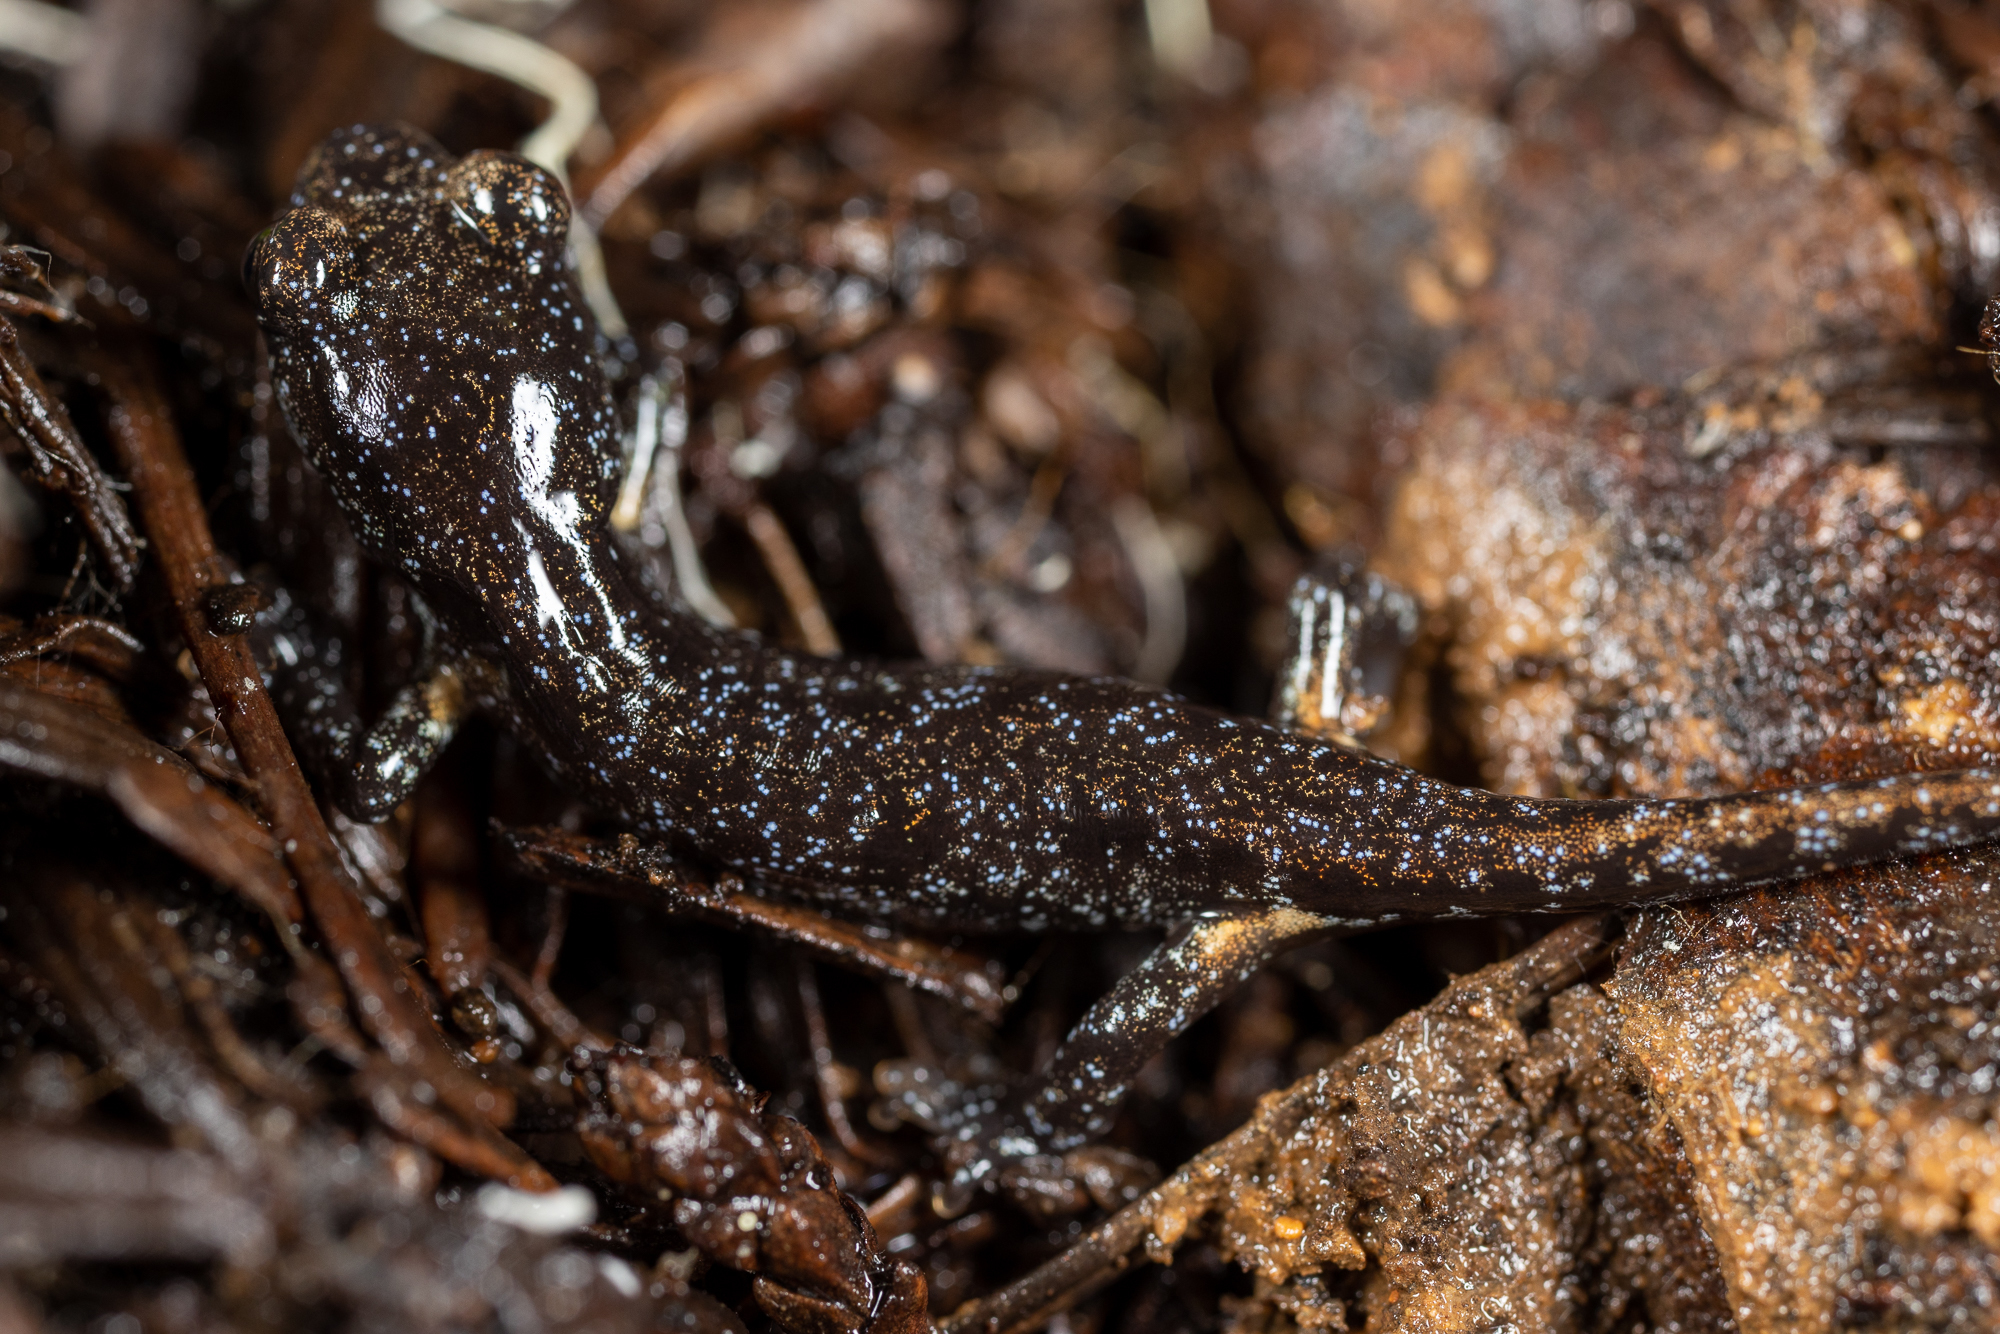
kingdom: Animalia
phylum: Chordata
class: Amphibia
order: Caudata
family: Plethodontidae
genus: Aneides
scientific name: Aneides lugubris
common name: Arboreal salamander
